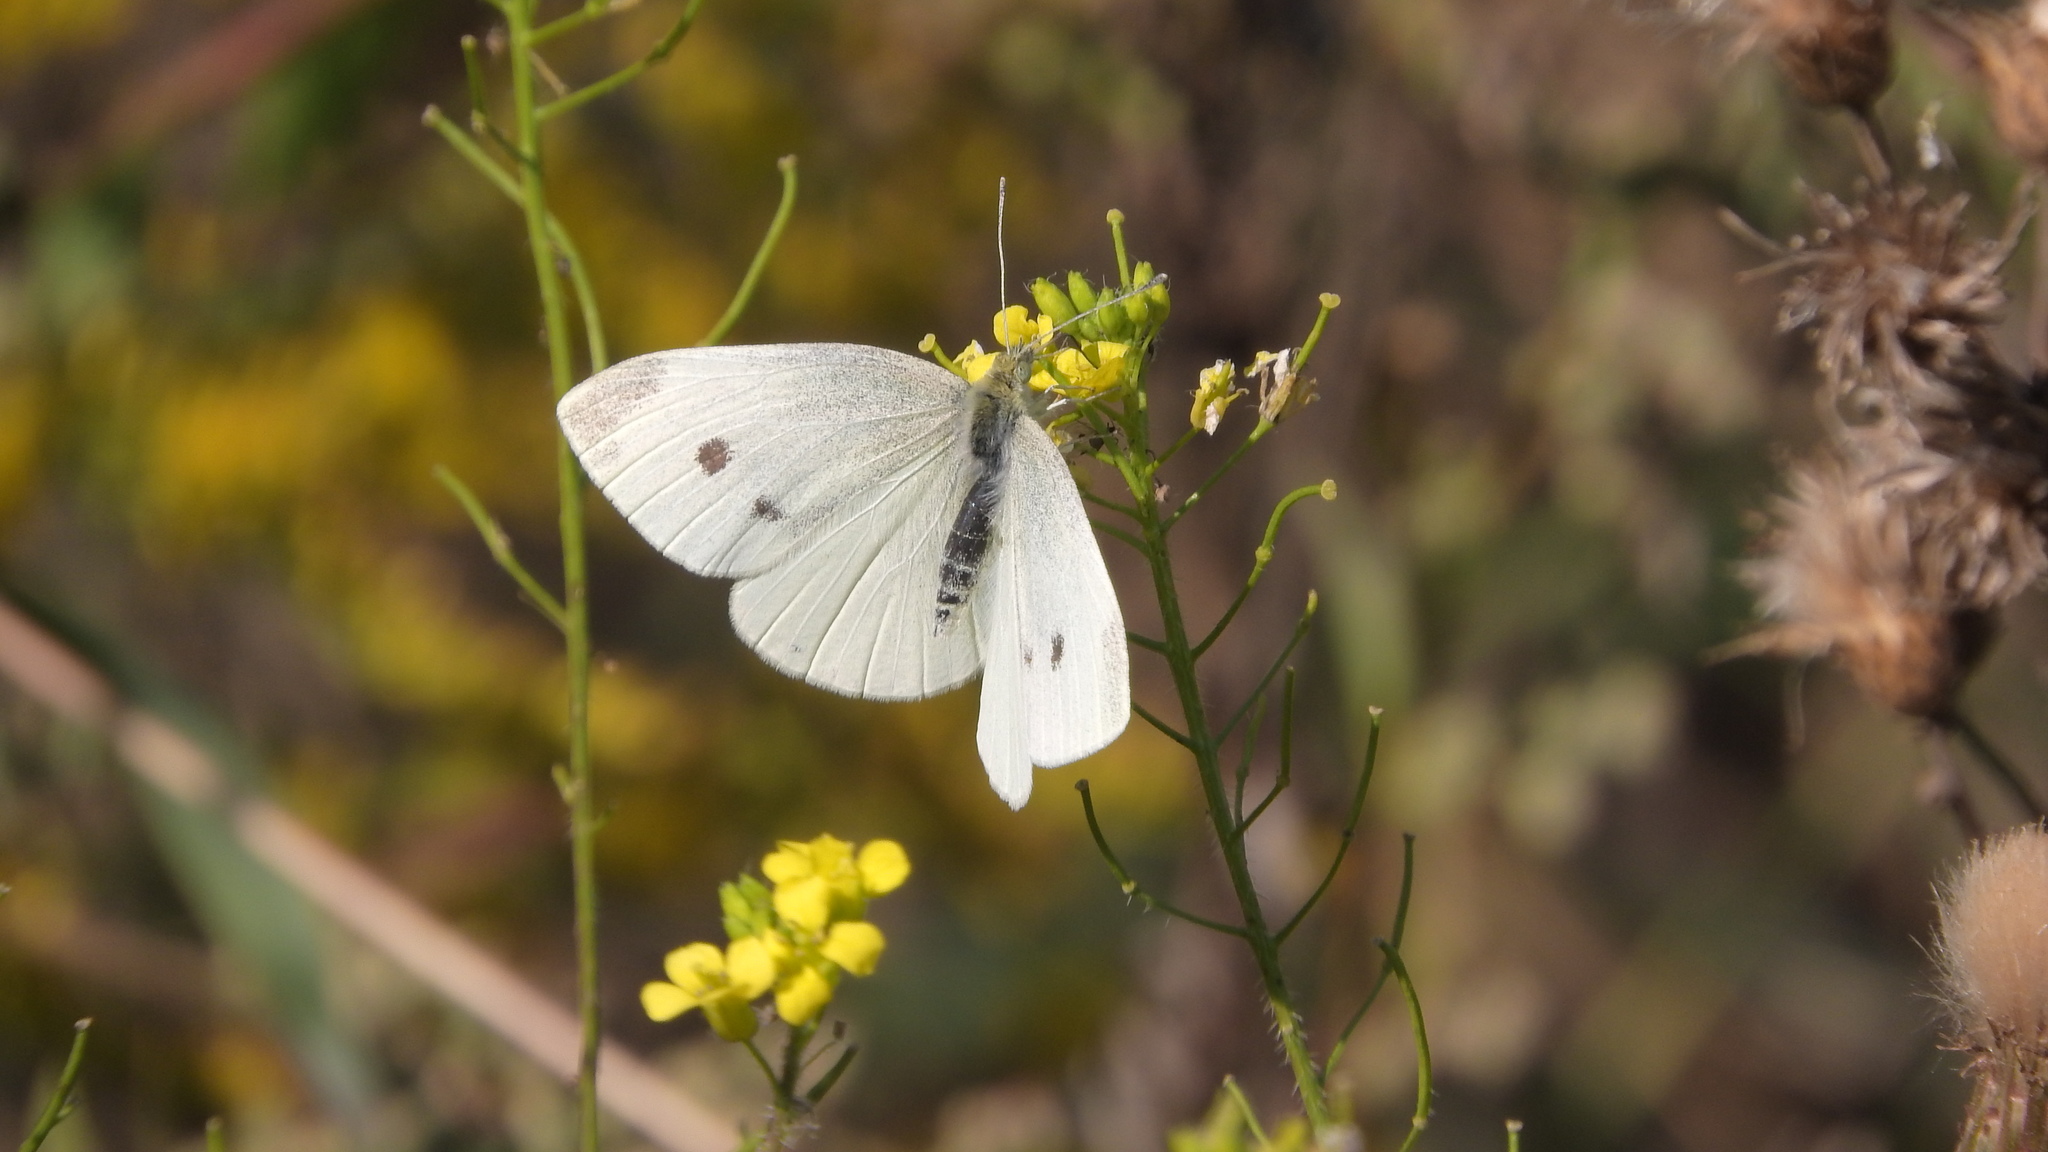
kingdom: Animalia
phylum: Arthropoda
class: Insecta
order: Lepidoptera
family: Pieridae
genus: Pieris
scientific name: Pieris rapae
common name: Small white
